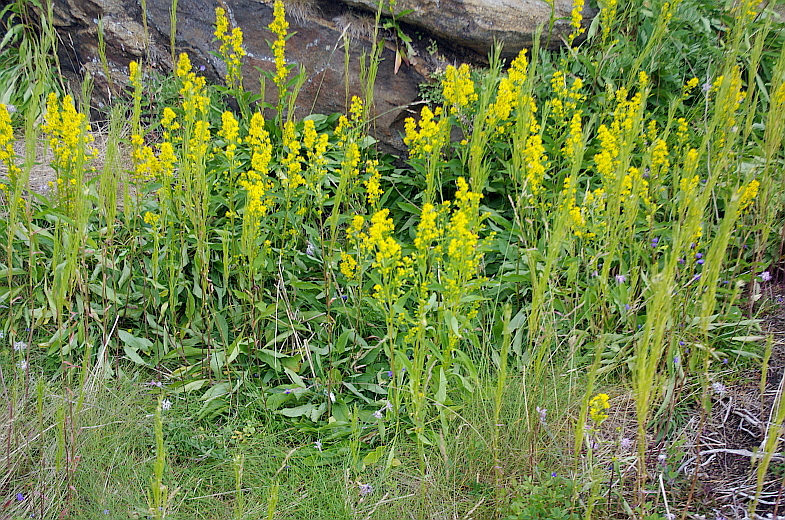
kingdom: Plantae
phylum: Tracheophyta
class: Magnoliopsida
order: Asterales
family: Asteraceae
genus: Solidago
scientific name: Solidago virgaurea
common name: Goldenrod
